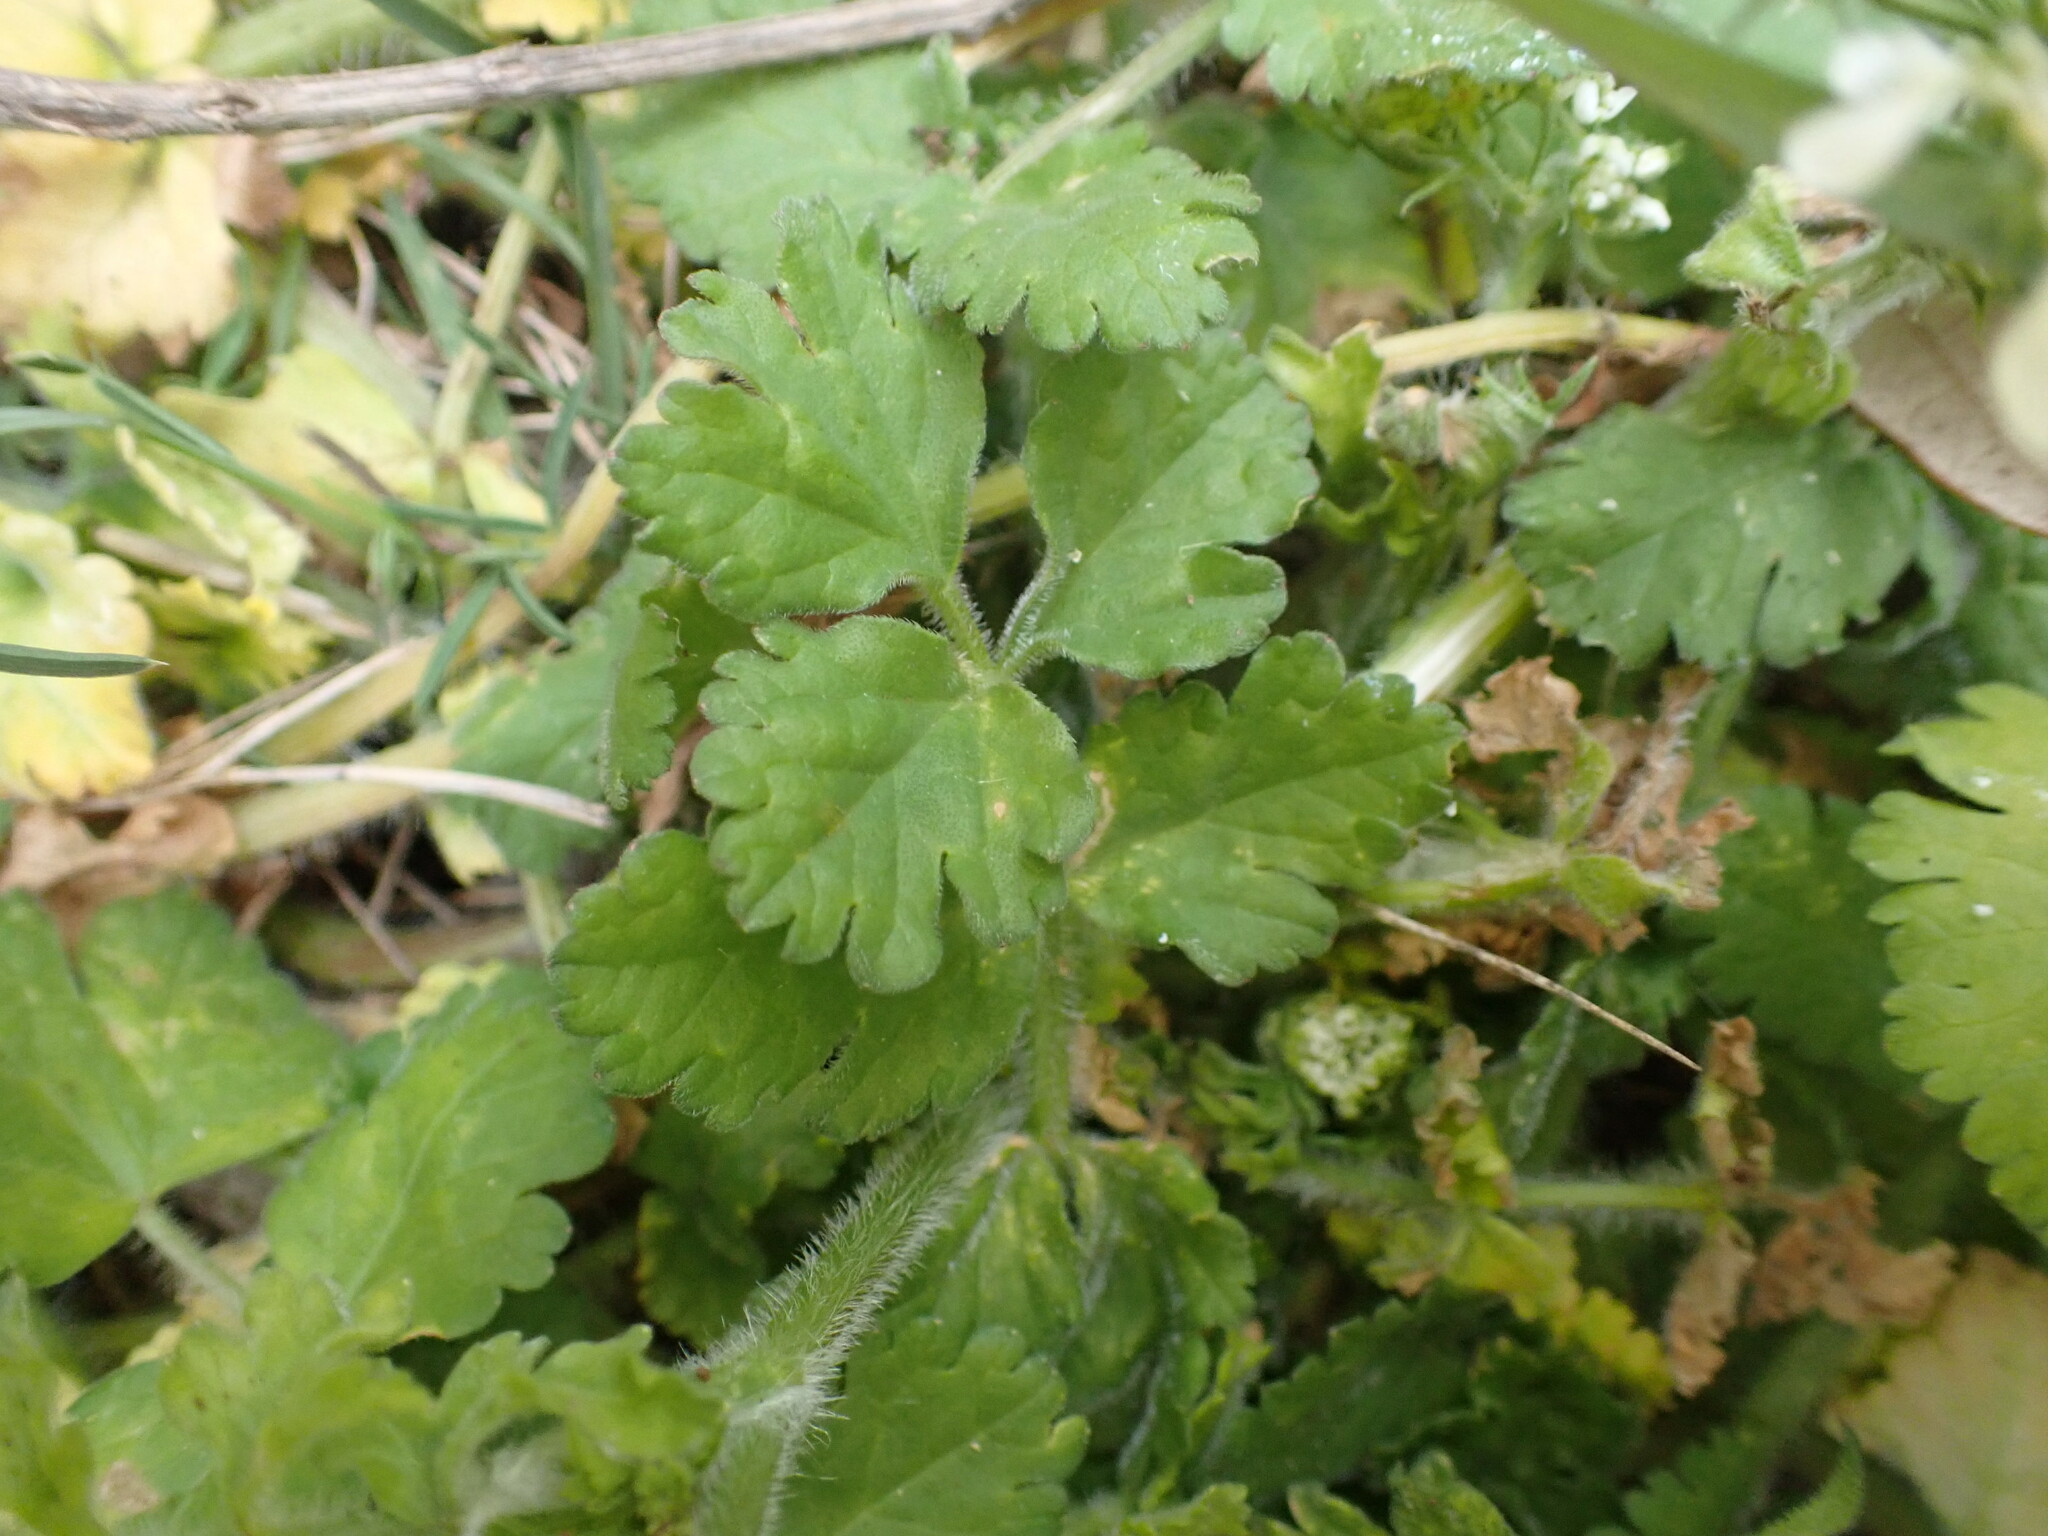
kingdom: Plantae
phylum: Tracheophyta
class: Magnoliopsida
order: Apiales
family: Apiaceae
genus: Tordylium
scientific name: Tordylium apulum
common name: Mediterranean hartwort
